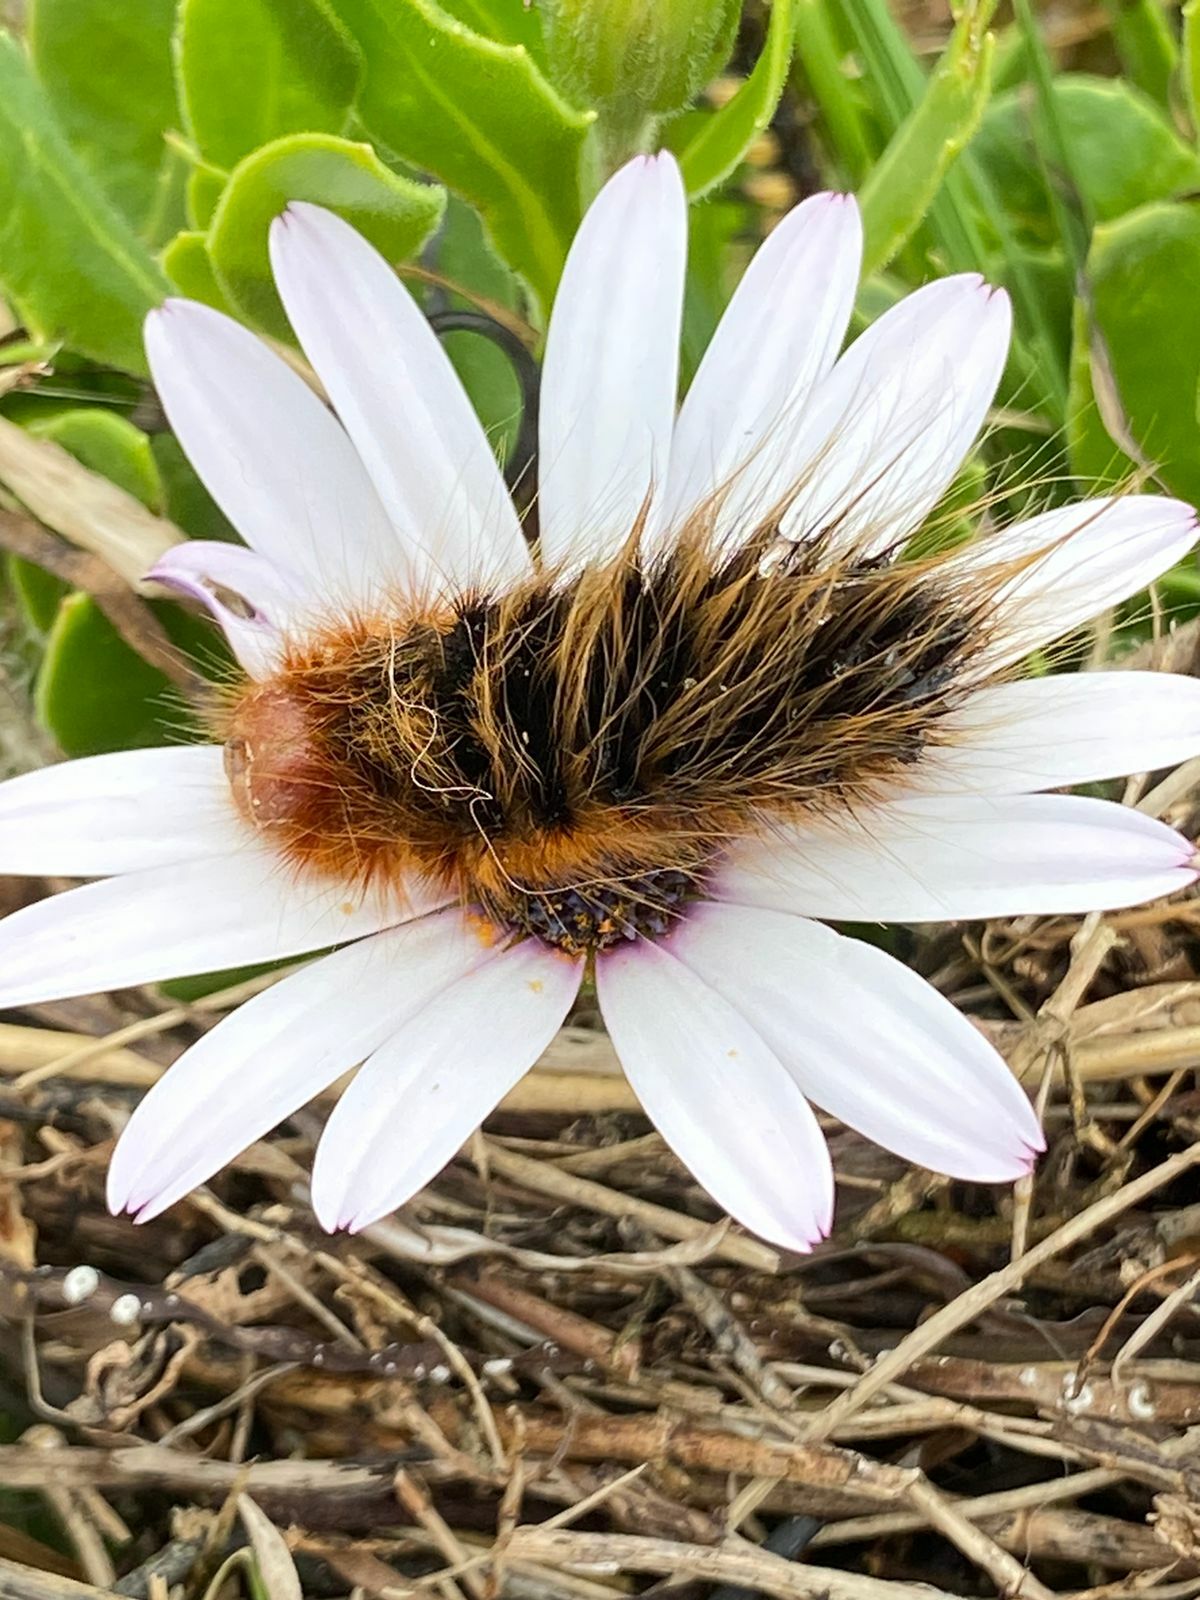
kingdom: Animalia
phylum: Arthropoda
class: Insecta
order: Lepidoptera
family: Eupterotidae
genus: Phyllalia
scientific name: Phyllalia patens
